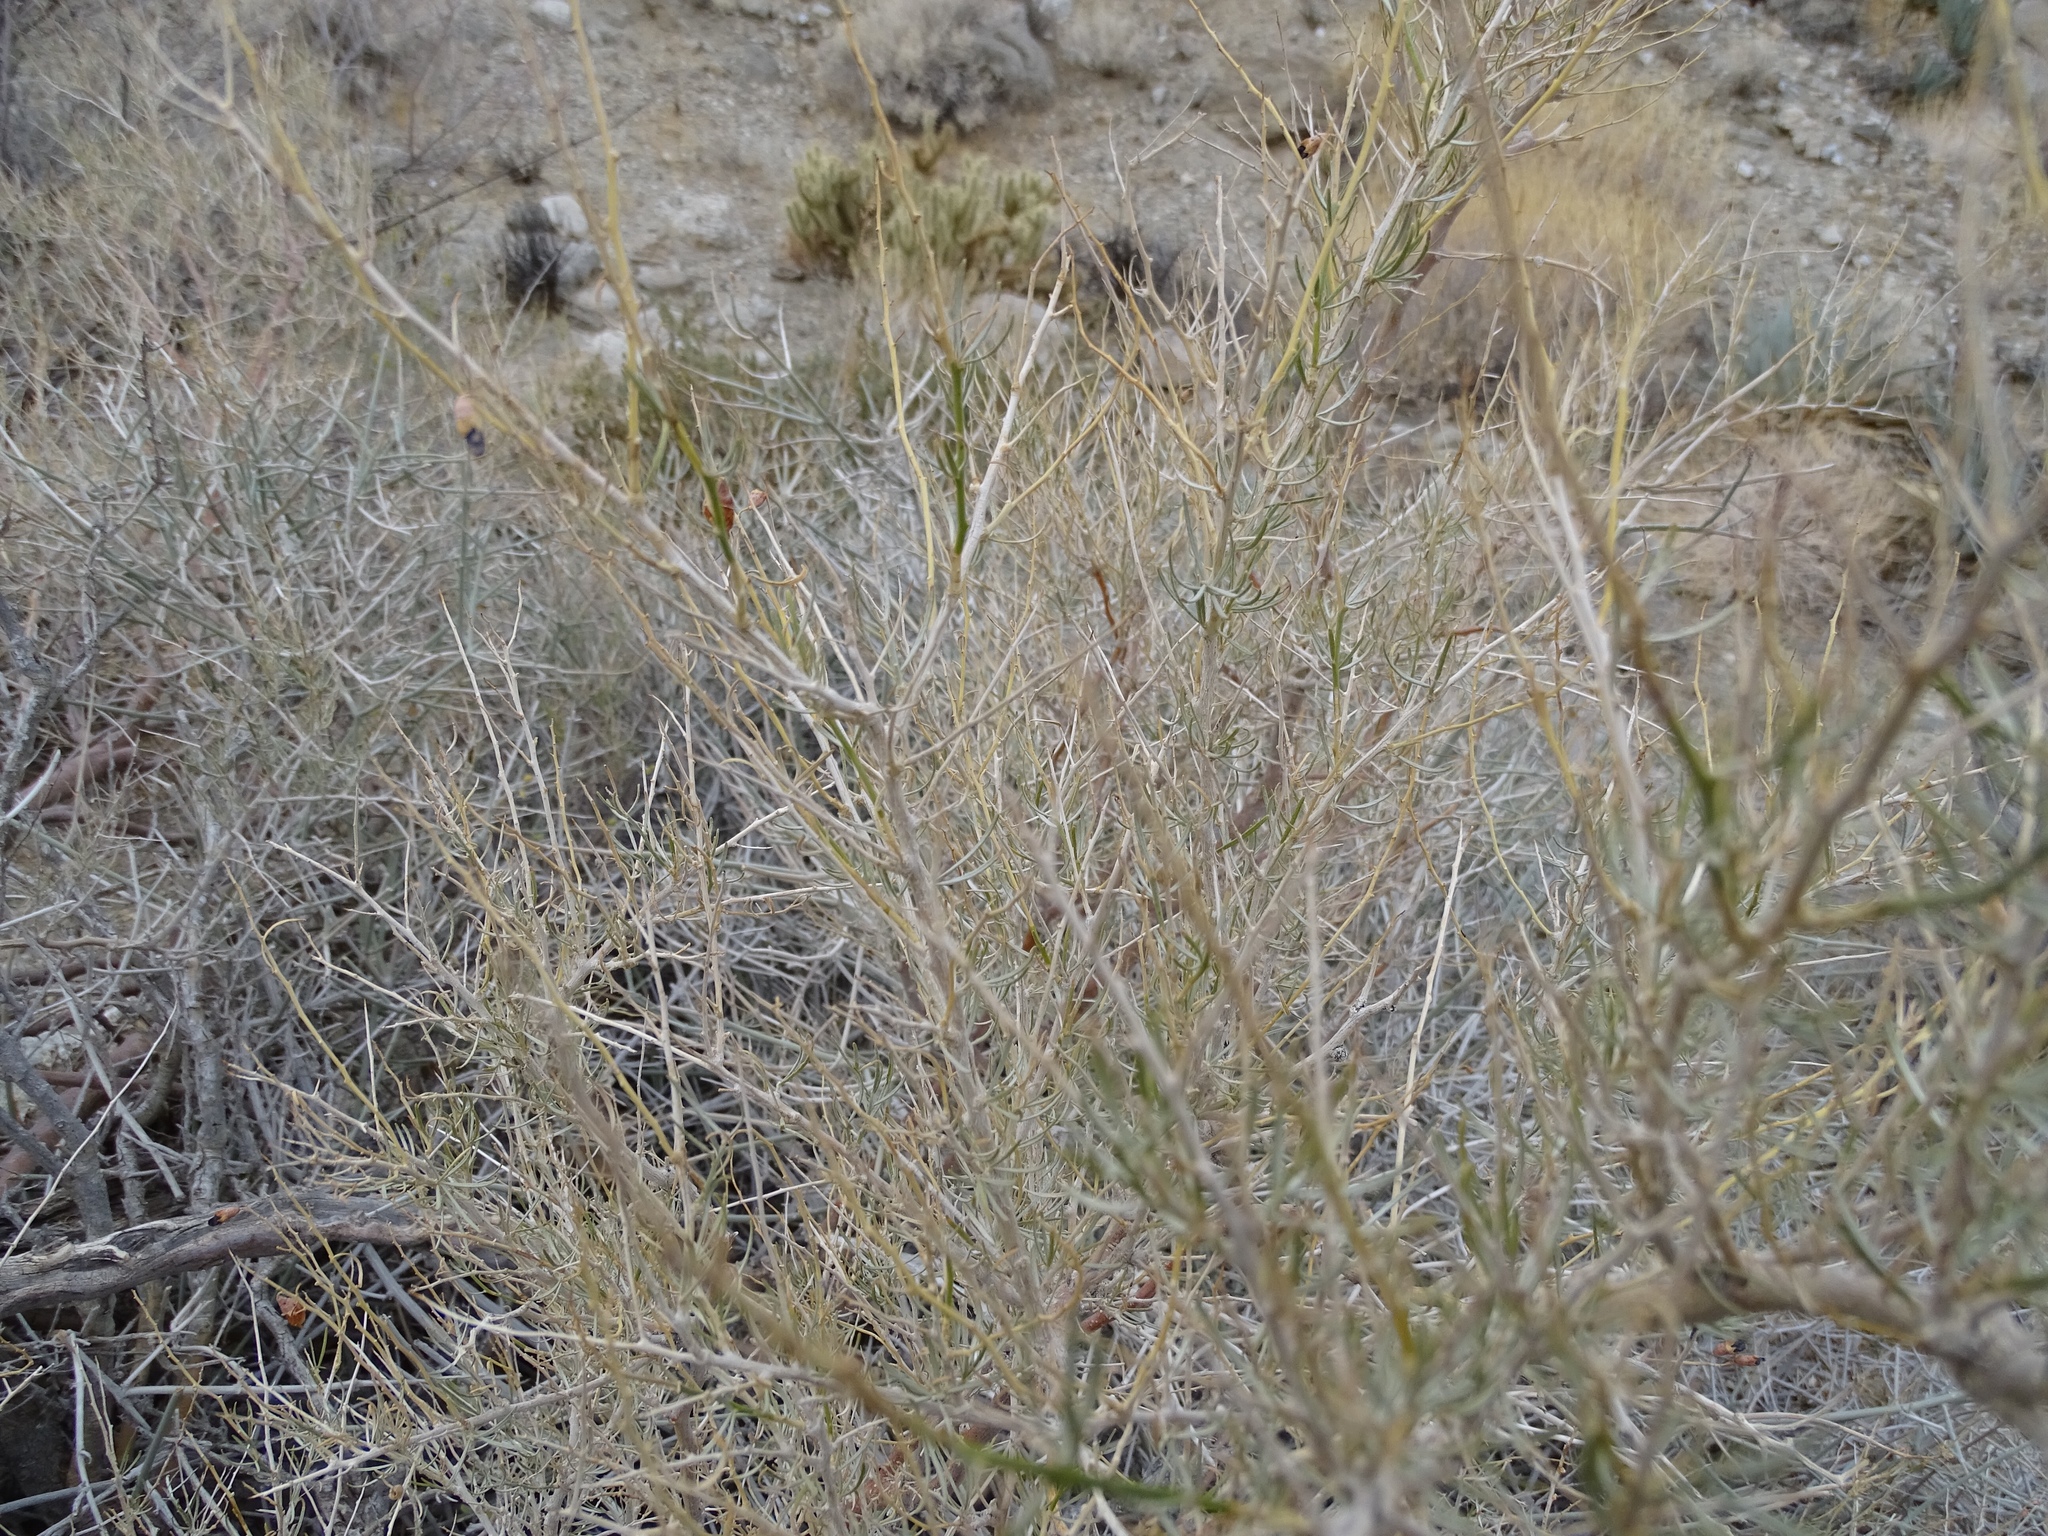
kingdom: Plantae
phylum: Tracheophyta
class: Magnoliopsida
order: Fabales
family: Fabaceae
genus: Psorothamnus
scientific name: Psorothamnus schottii
